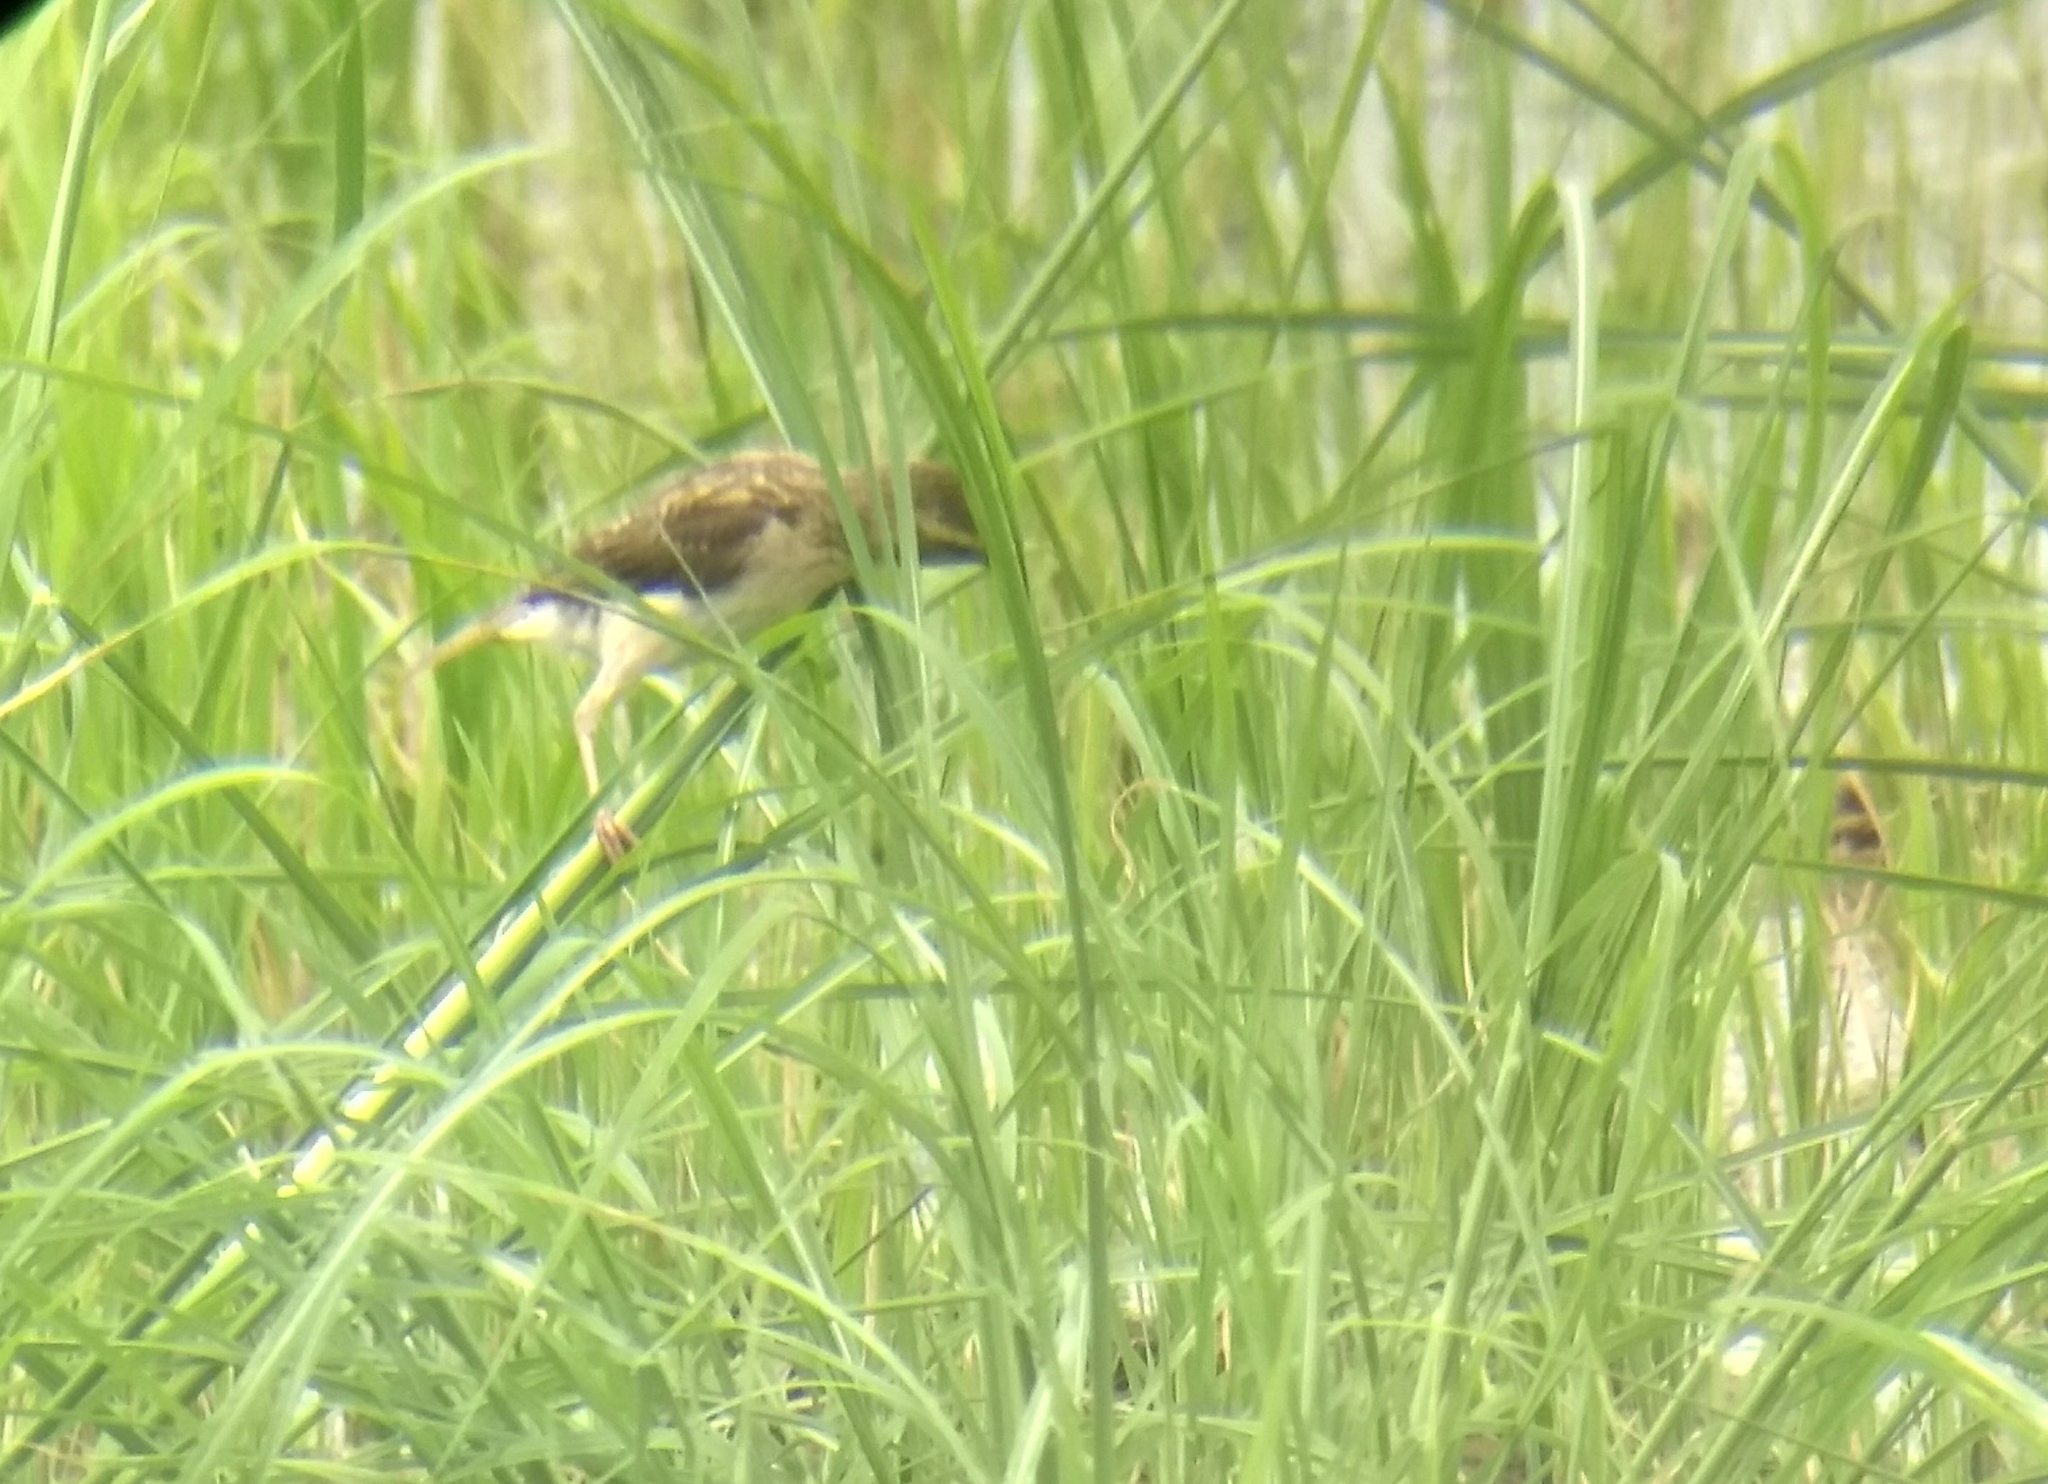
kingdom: Animalia
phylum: Chordata
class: Aves
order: Passeriformes
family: Ploceidae
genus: Ploceus
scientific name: Ploceus philippinus
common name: Baya weaver
